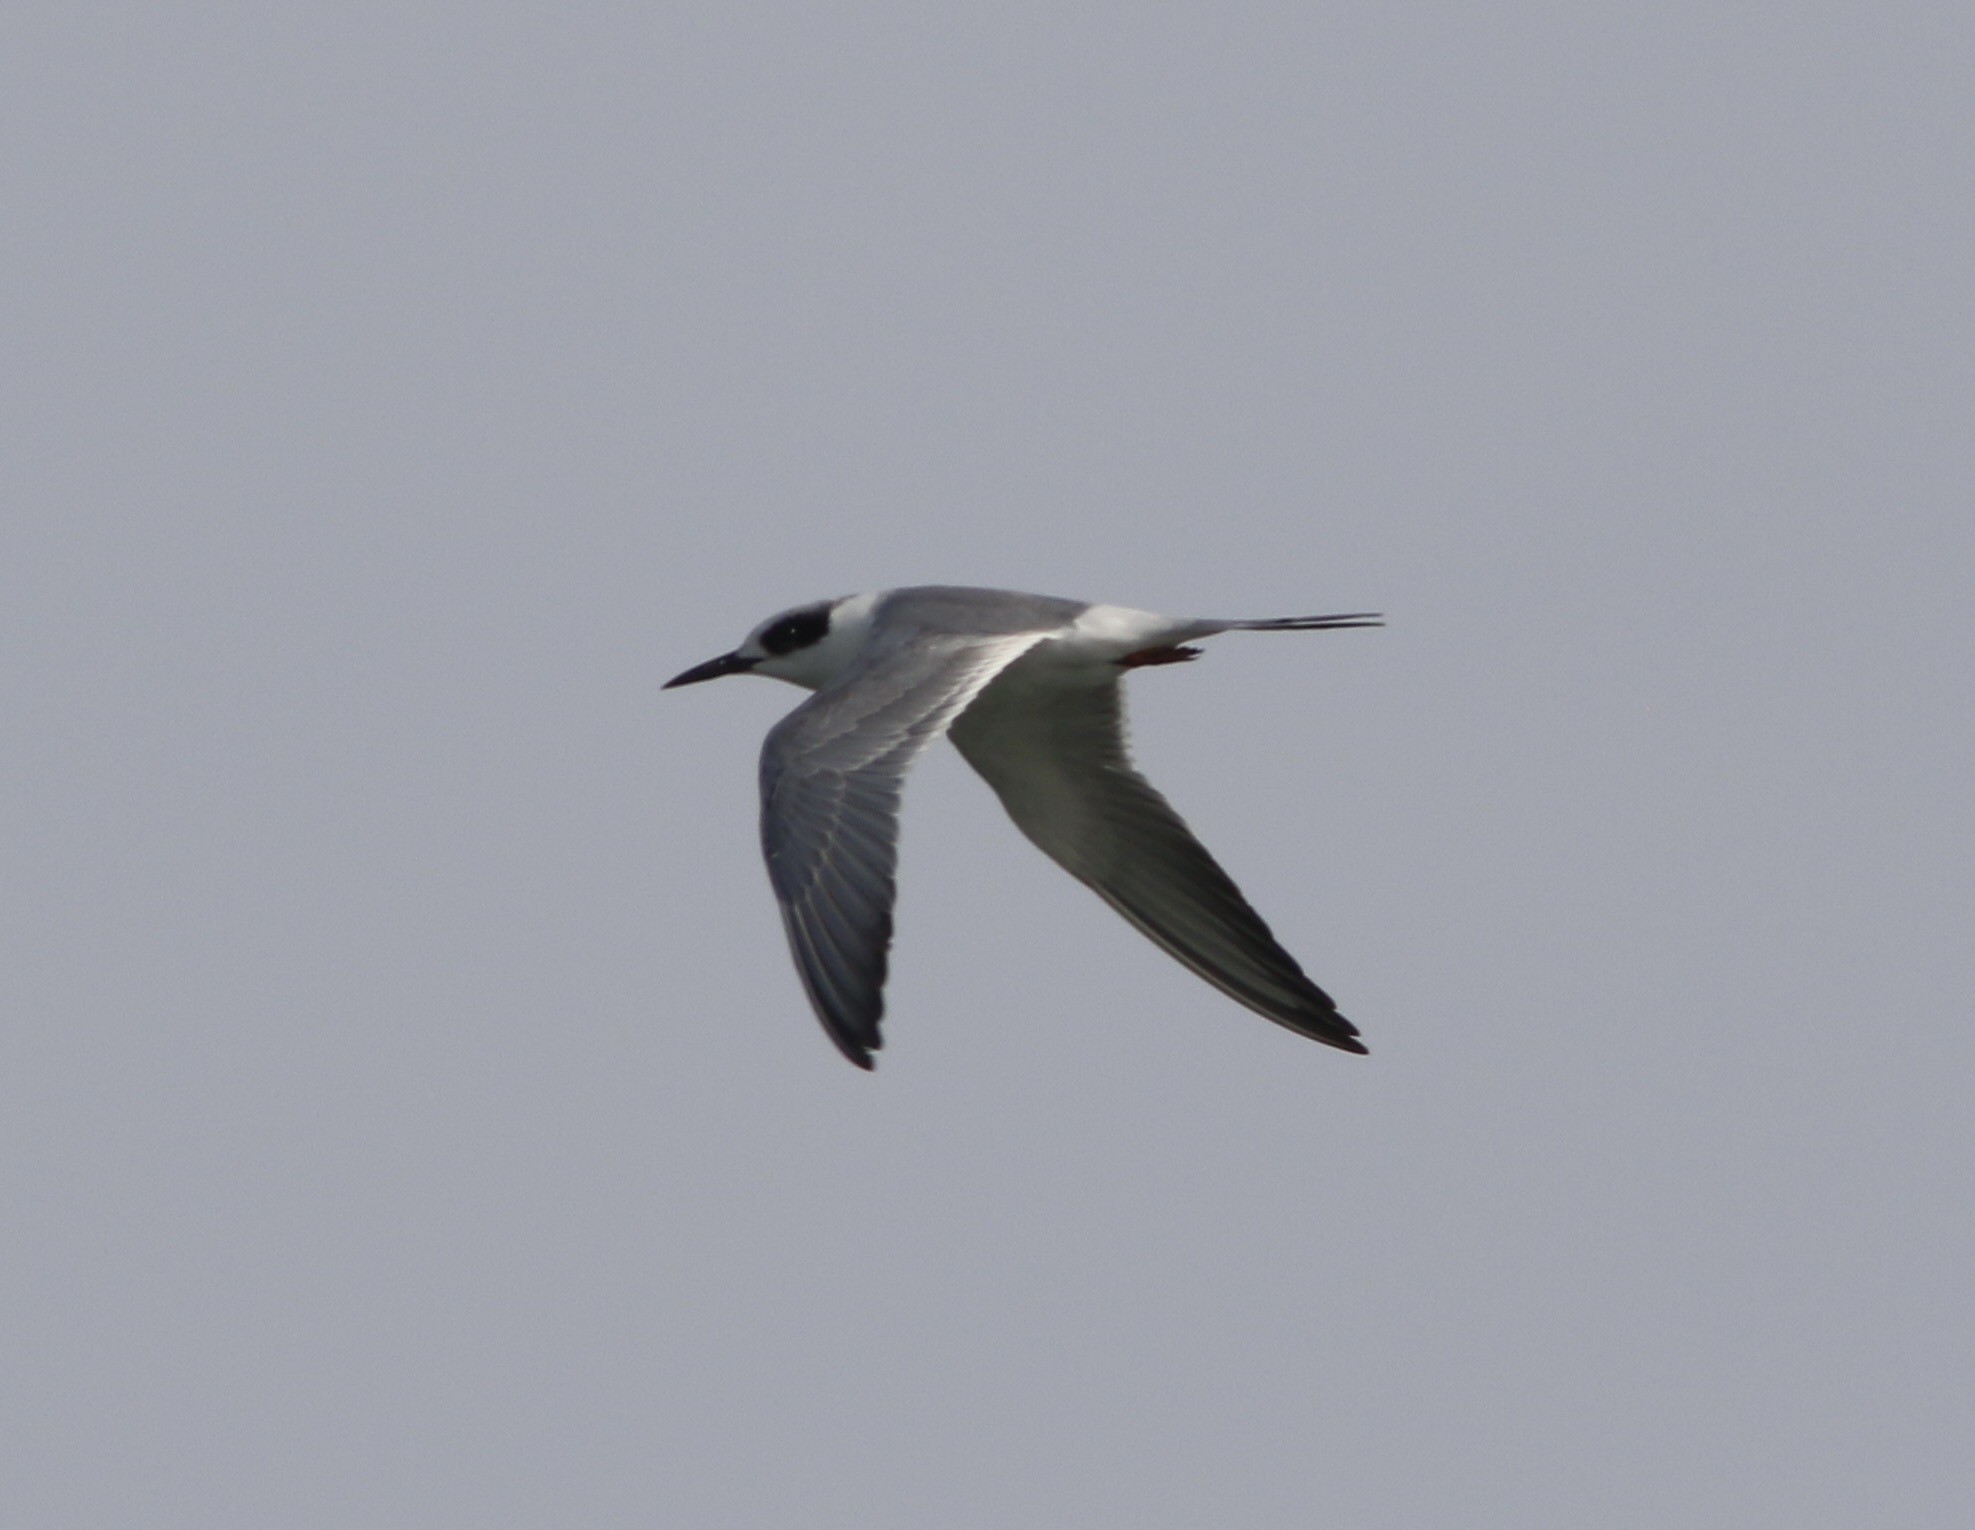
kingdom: Animalia
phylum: Chordata
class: Aves
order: Charadriiformes
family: Laridae
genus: Sterna
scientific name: Sterna forsteri
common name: Forster's tern
